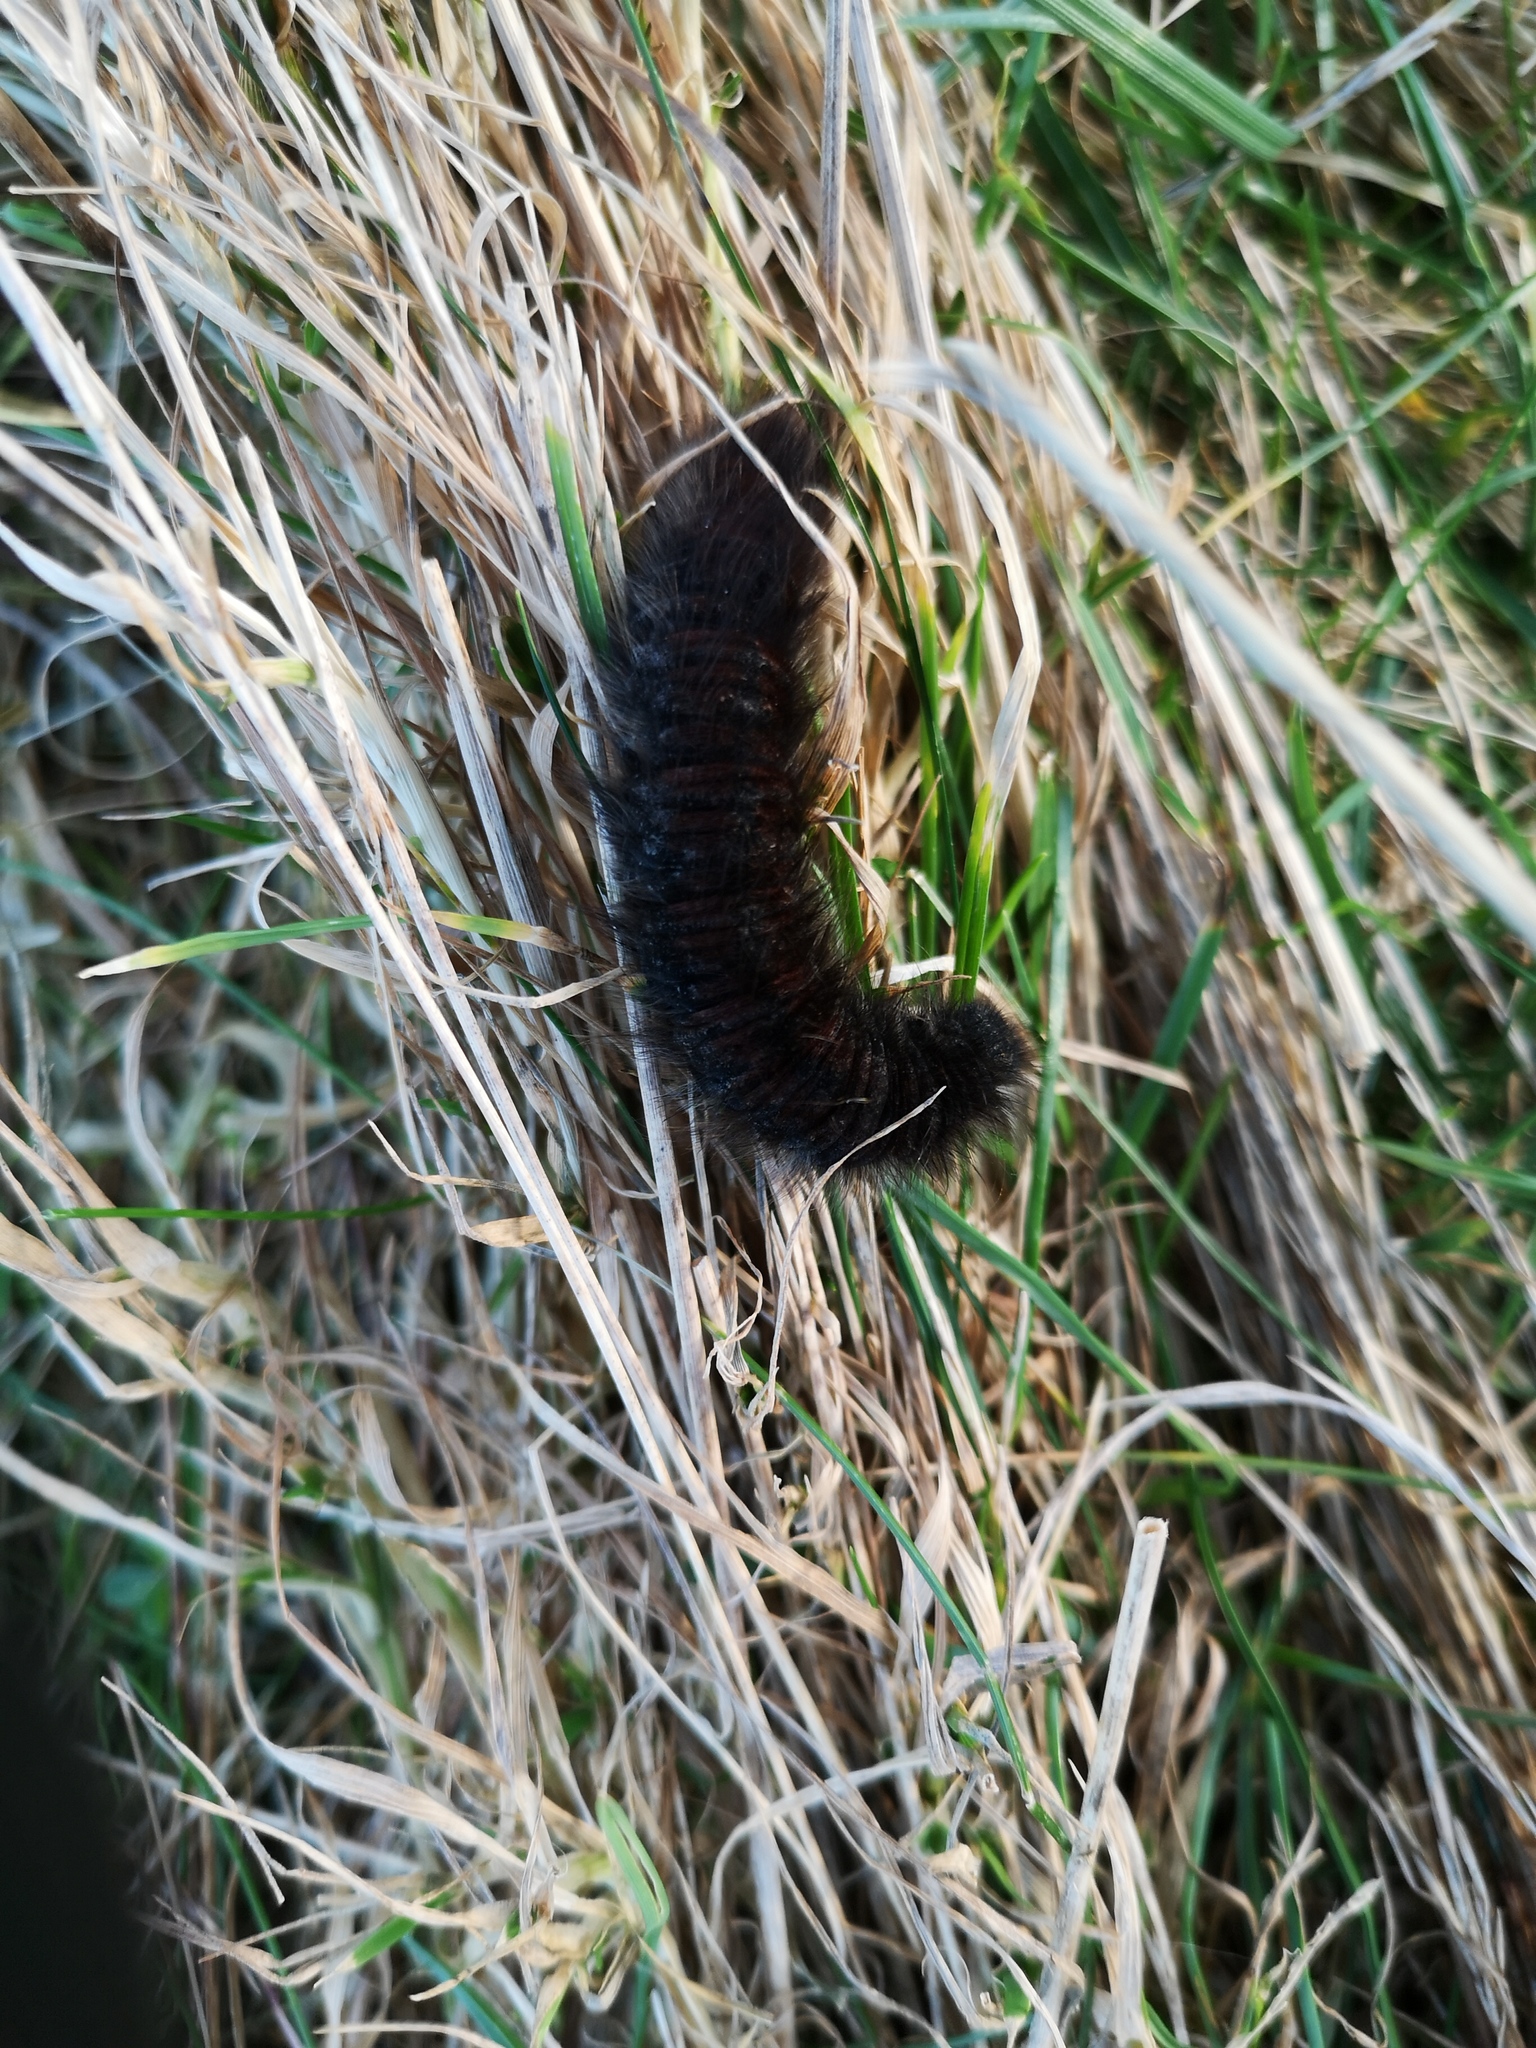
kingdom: Animalia
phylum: Arthropoda
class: Insecta
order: Lepidoptera
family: Lasiocampidae
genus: Macrothylacia
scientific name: Macrothylacia rubi
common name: Fox moth
